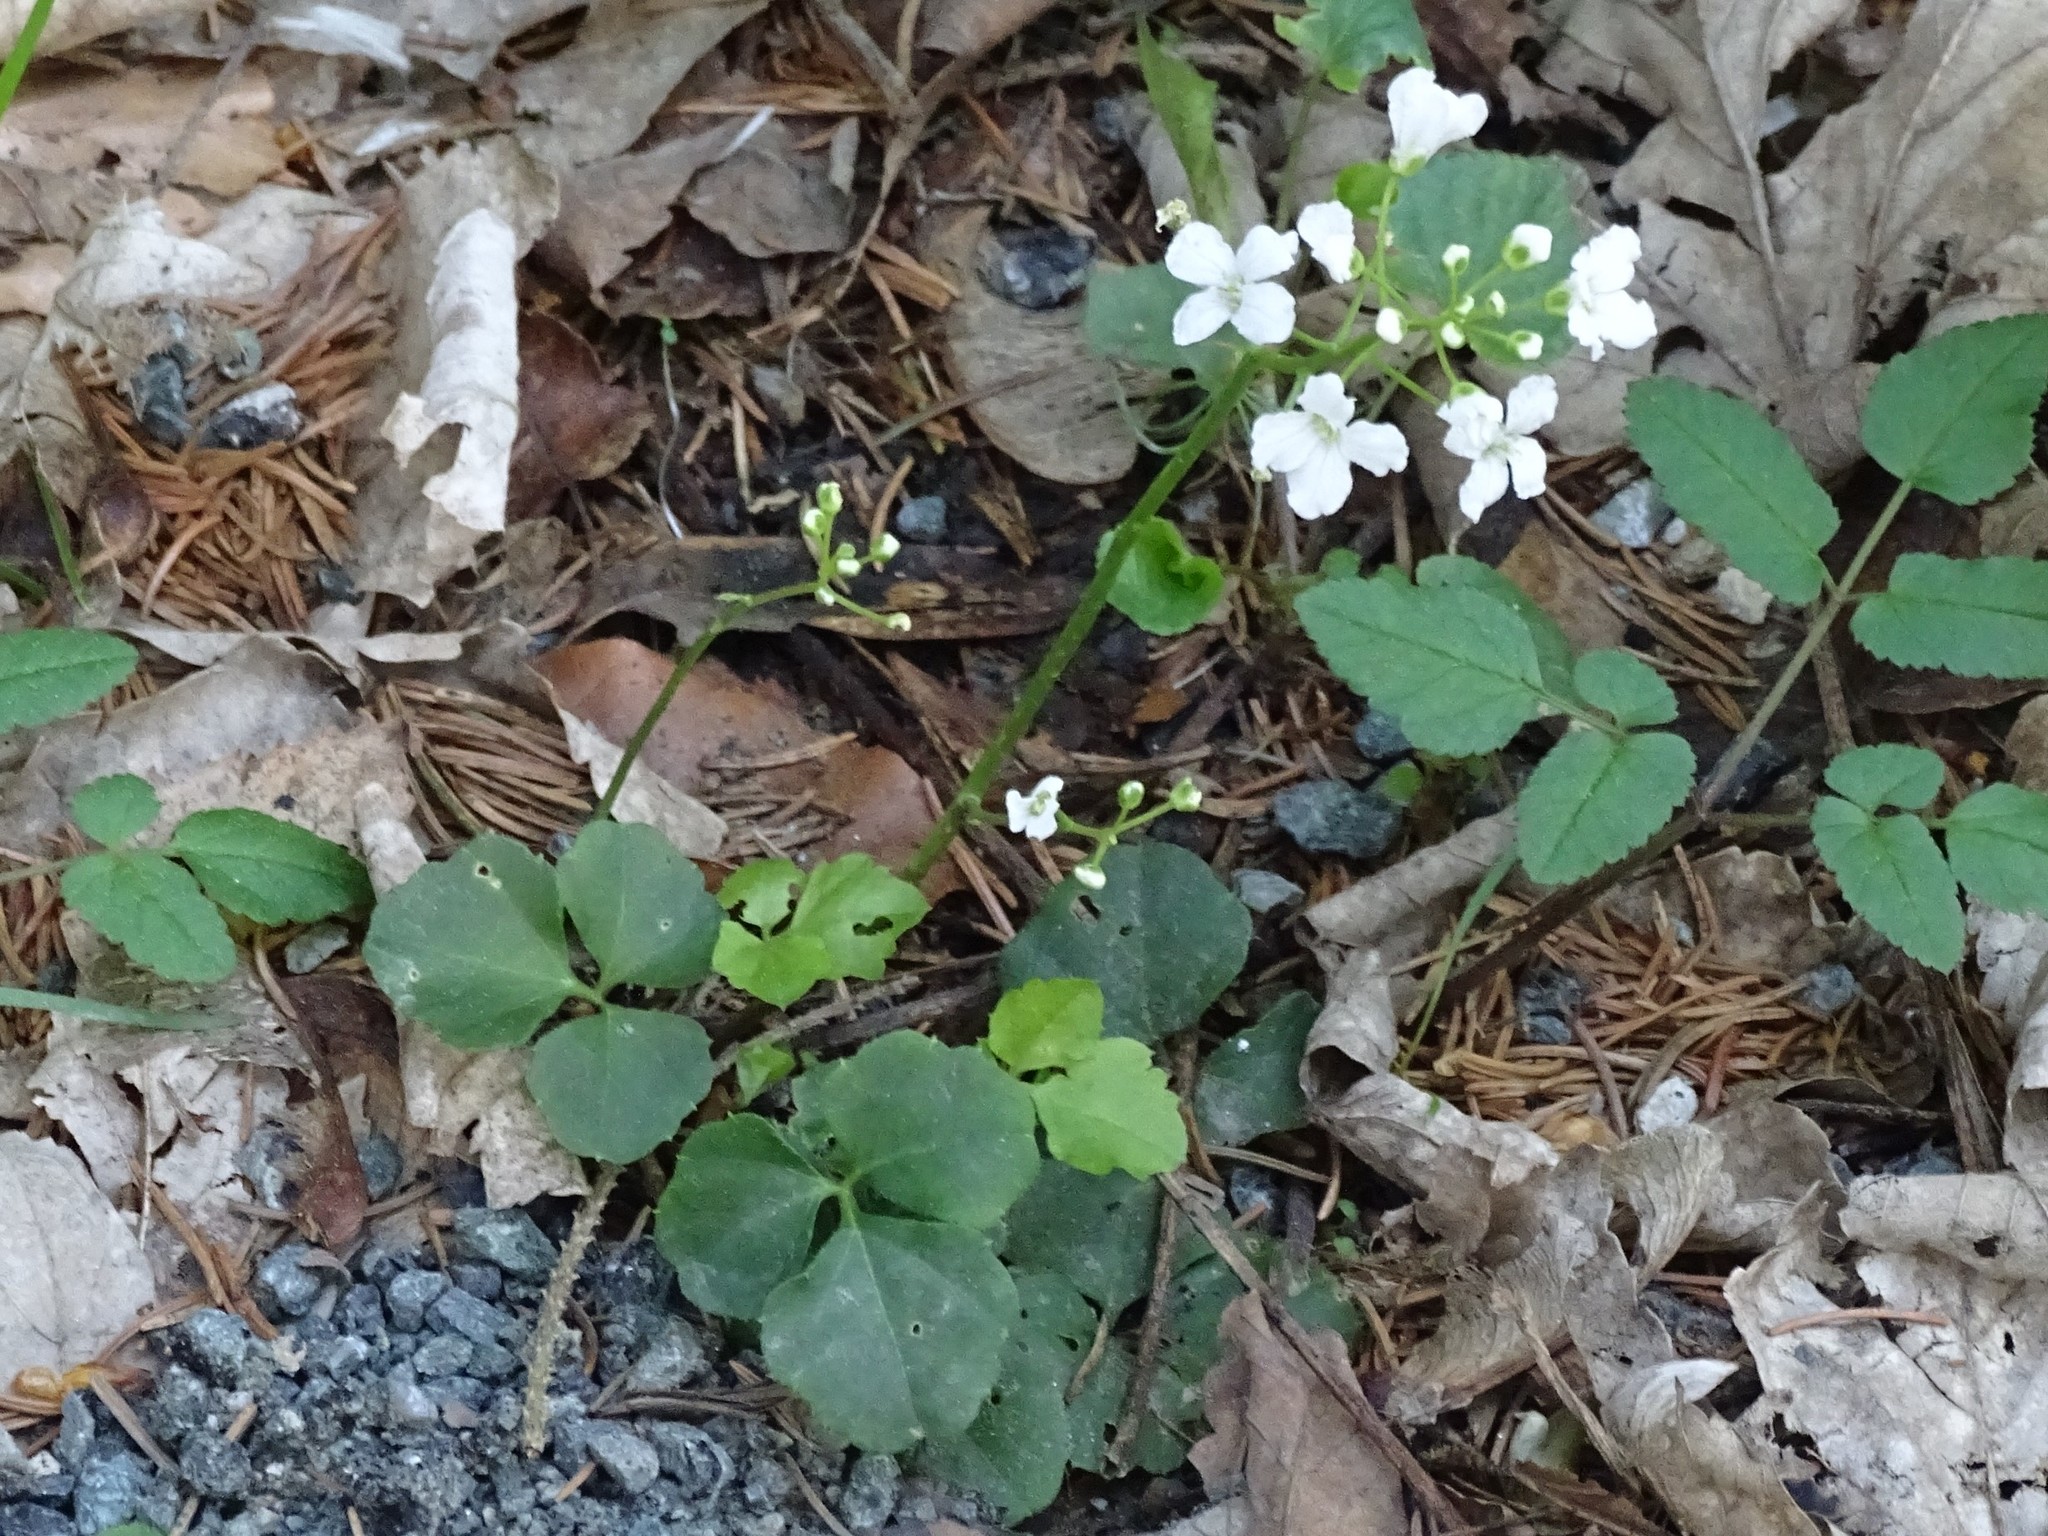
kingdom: Plantae
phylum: Tracheophyta
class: Magnoliopsida
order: Brassicales
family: Brassicaceae
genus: Cardamine
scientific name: Cardamine trifolia
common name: Trefoil cress
